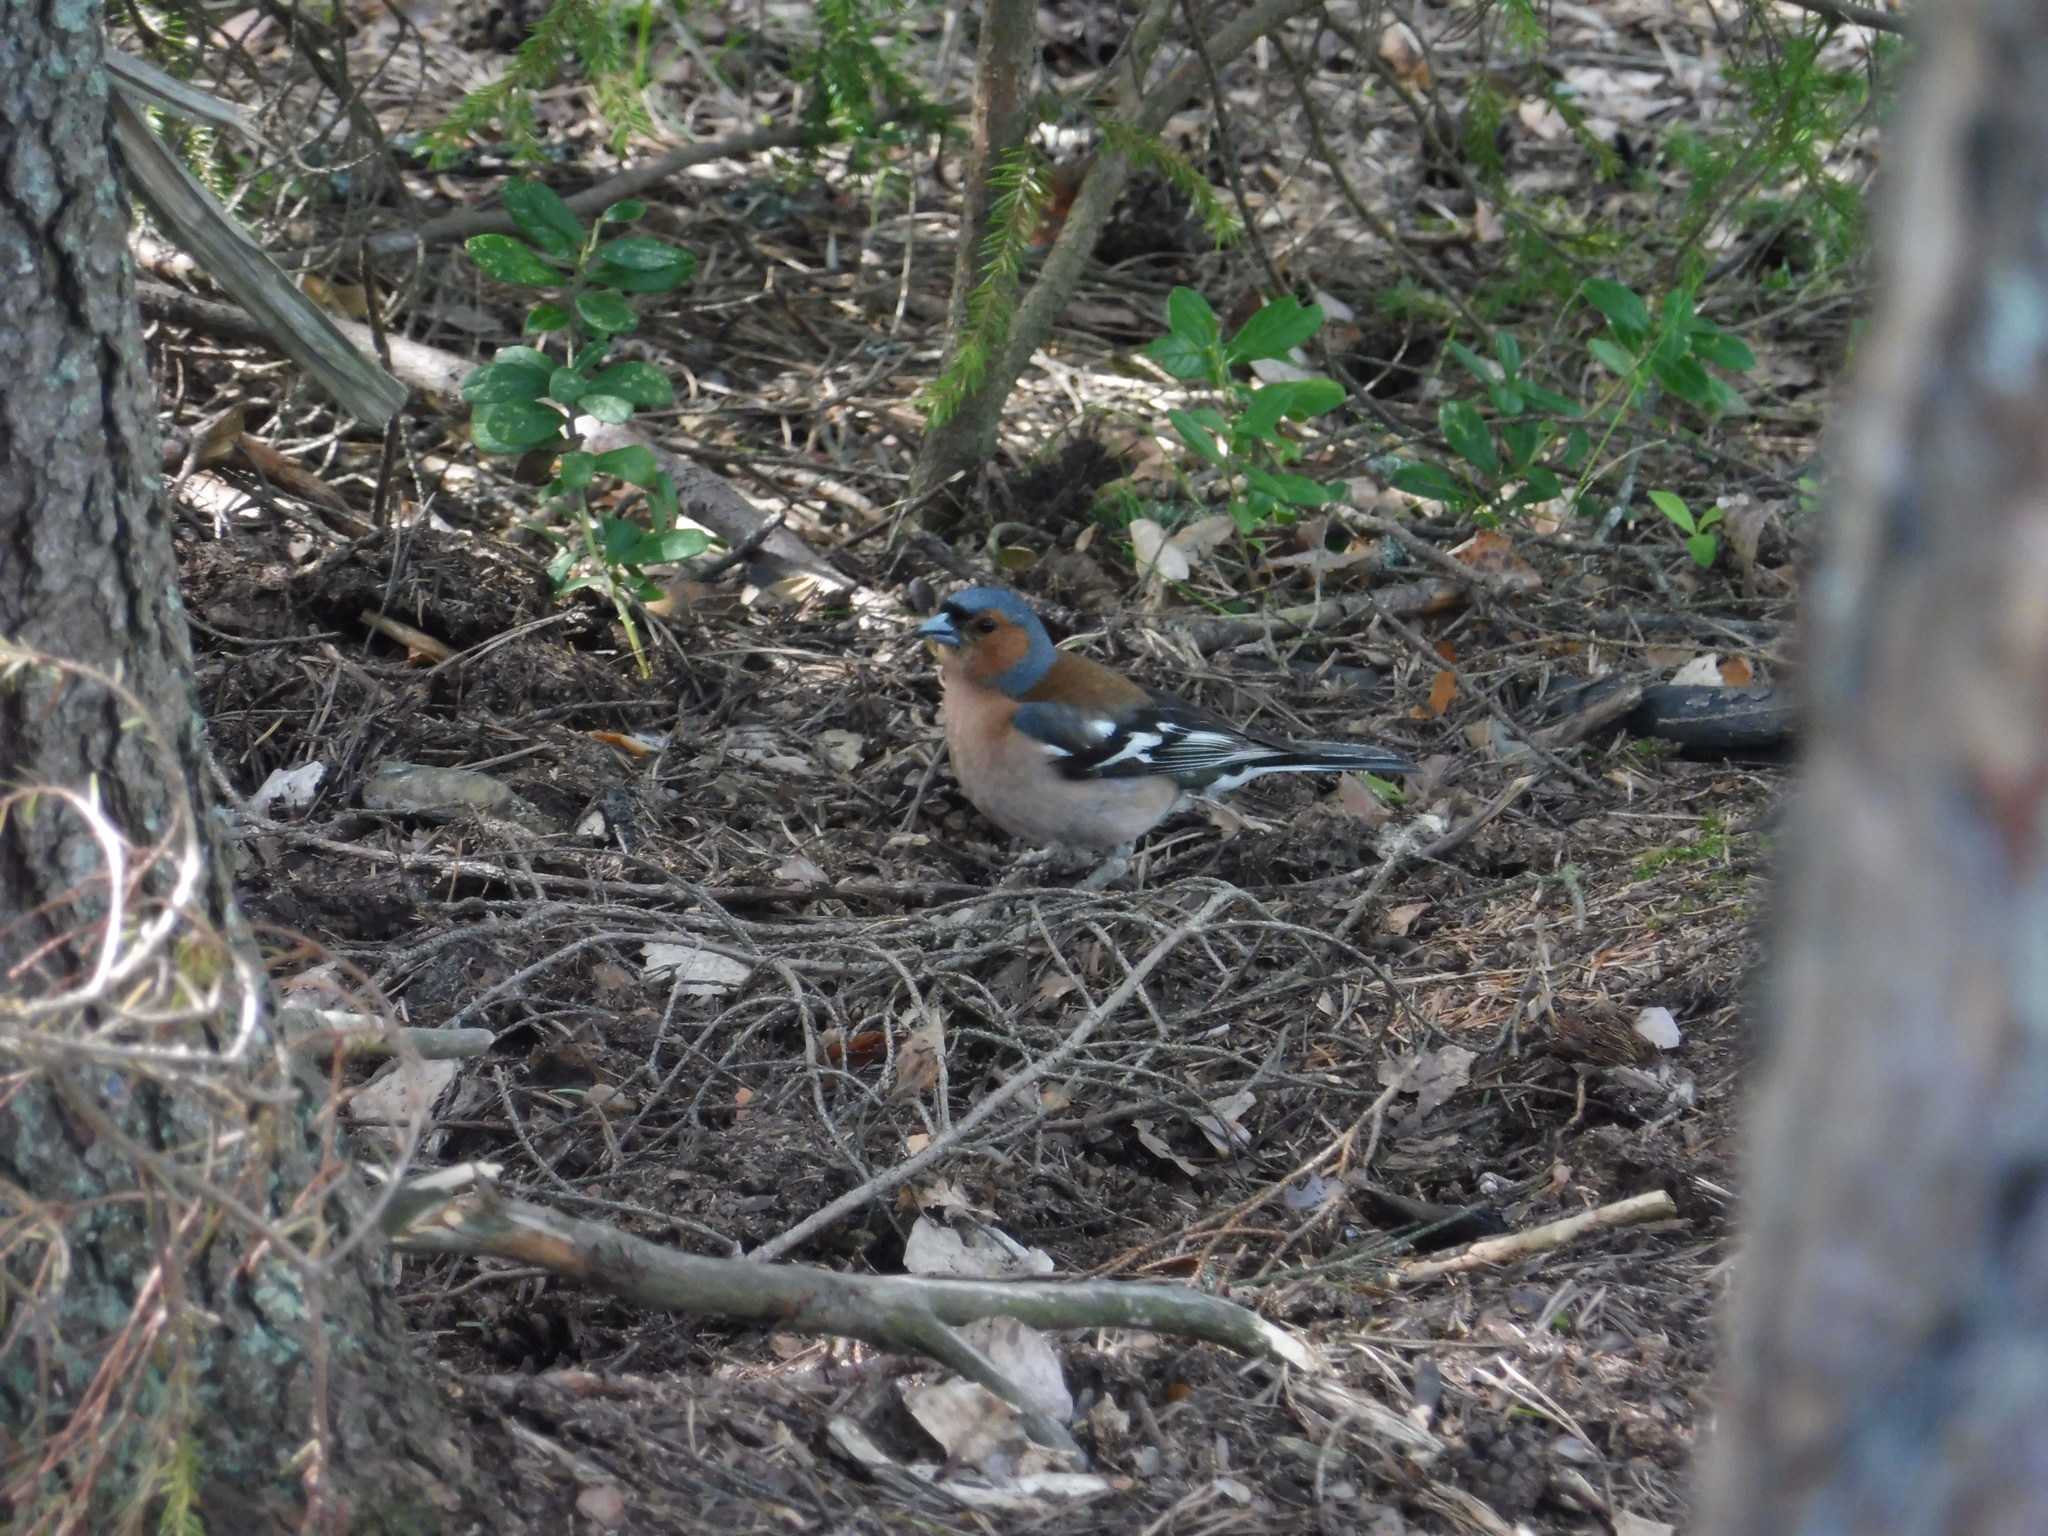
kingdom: Animalia
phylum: Chordata
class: Aves
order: Passeriformes
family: Fringillidae
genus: Fringilla
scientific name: Fringilla coelebs
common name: Common chaffinch
